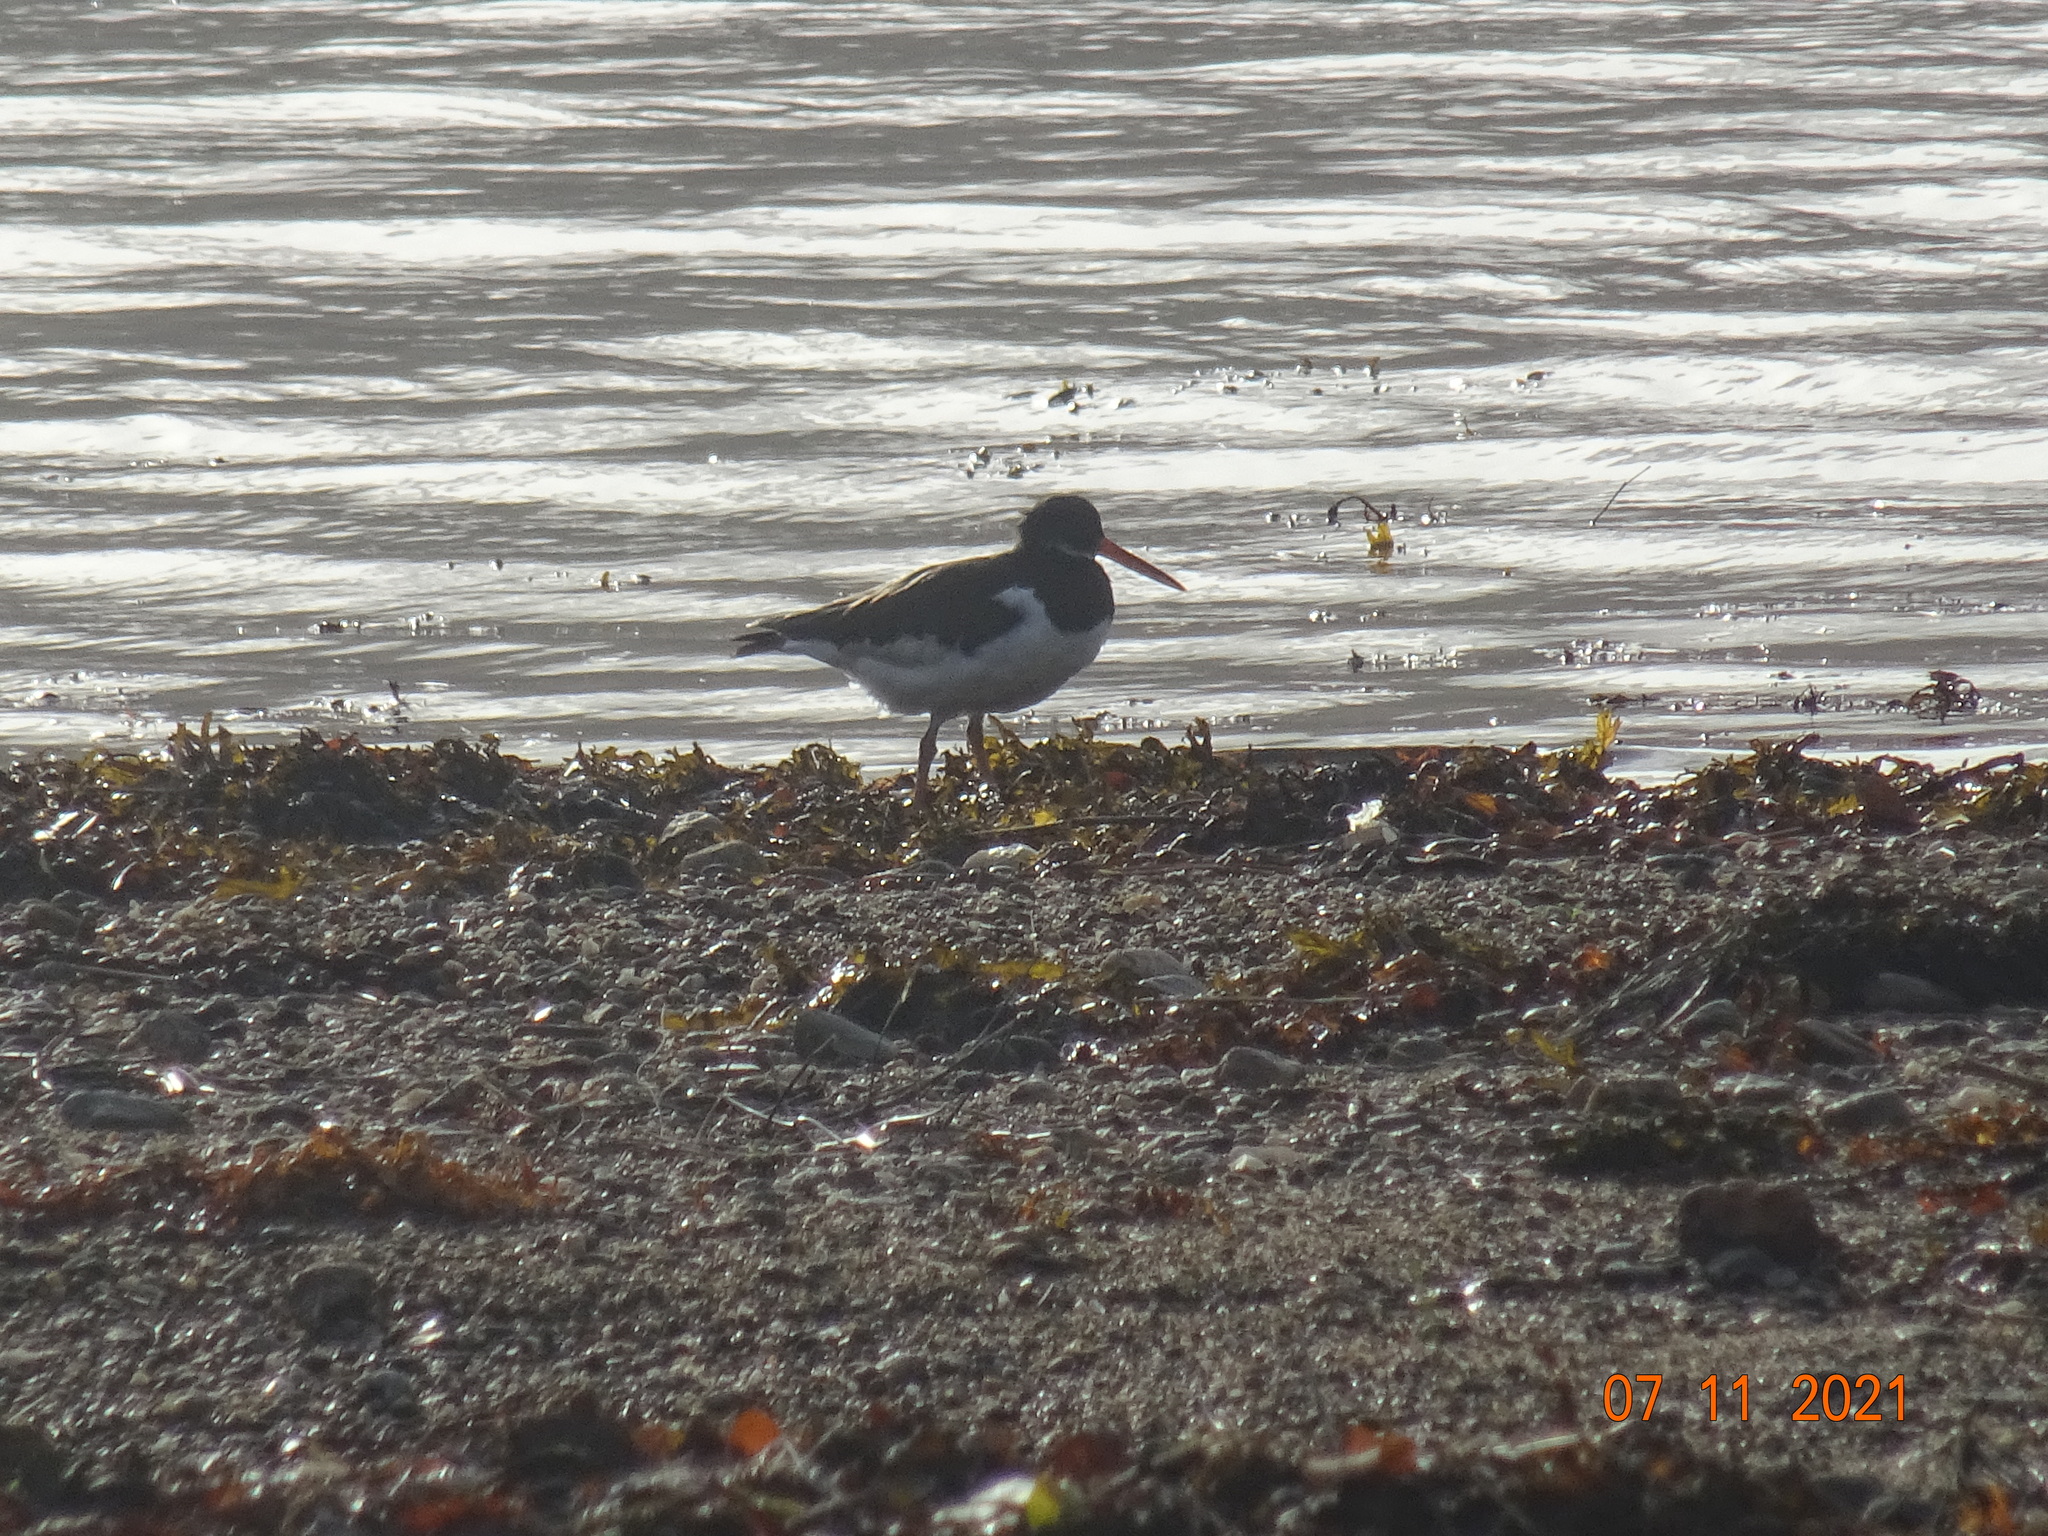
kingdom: Animalia
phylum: Chordata
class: Aves
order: Charadriiformes
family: Haematopodidae
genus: Haematopus
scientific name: Haematopus ostralegus
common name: Eurasian oystercatcher
